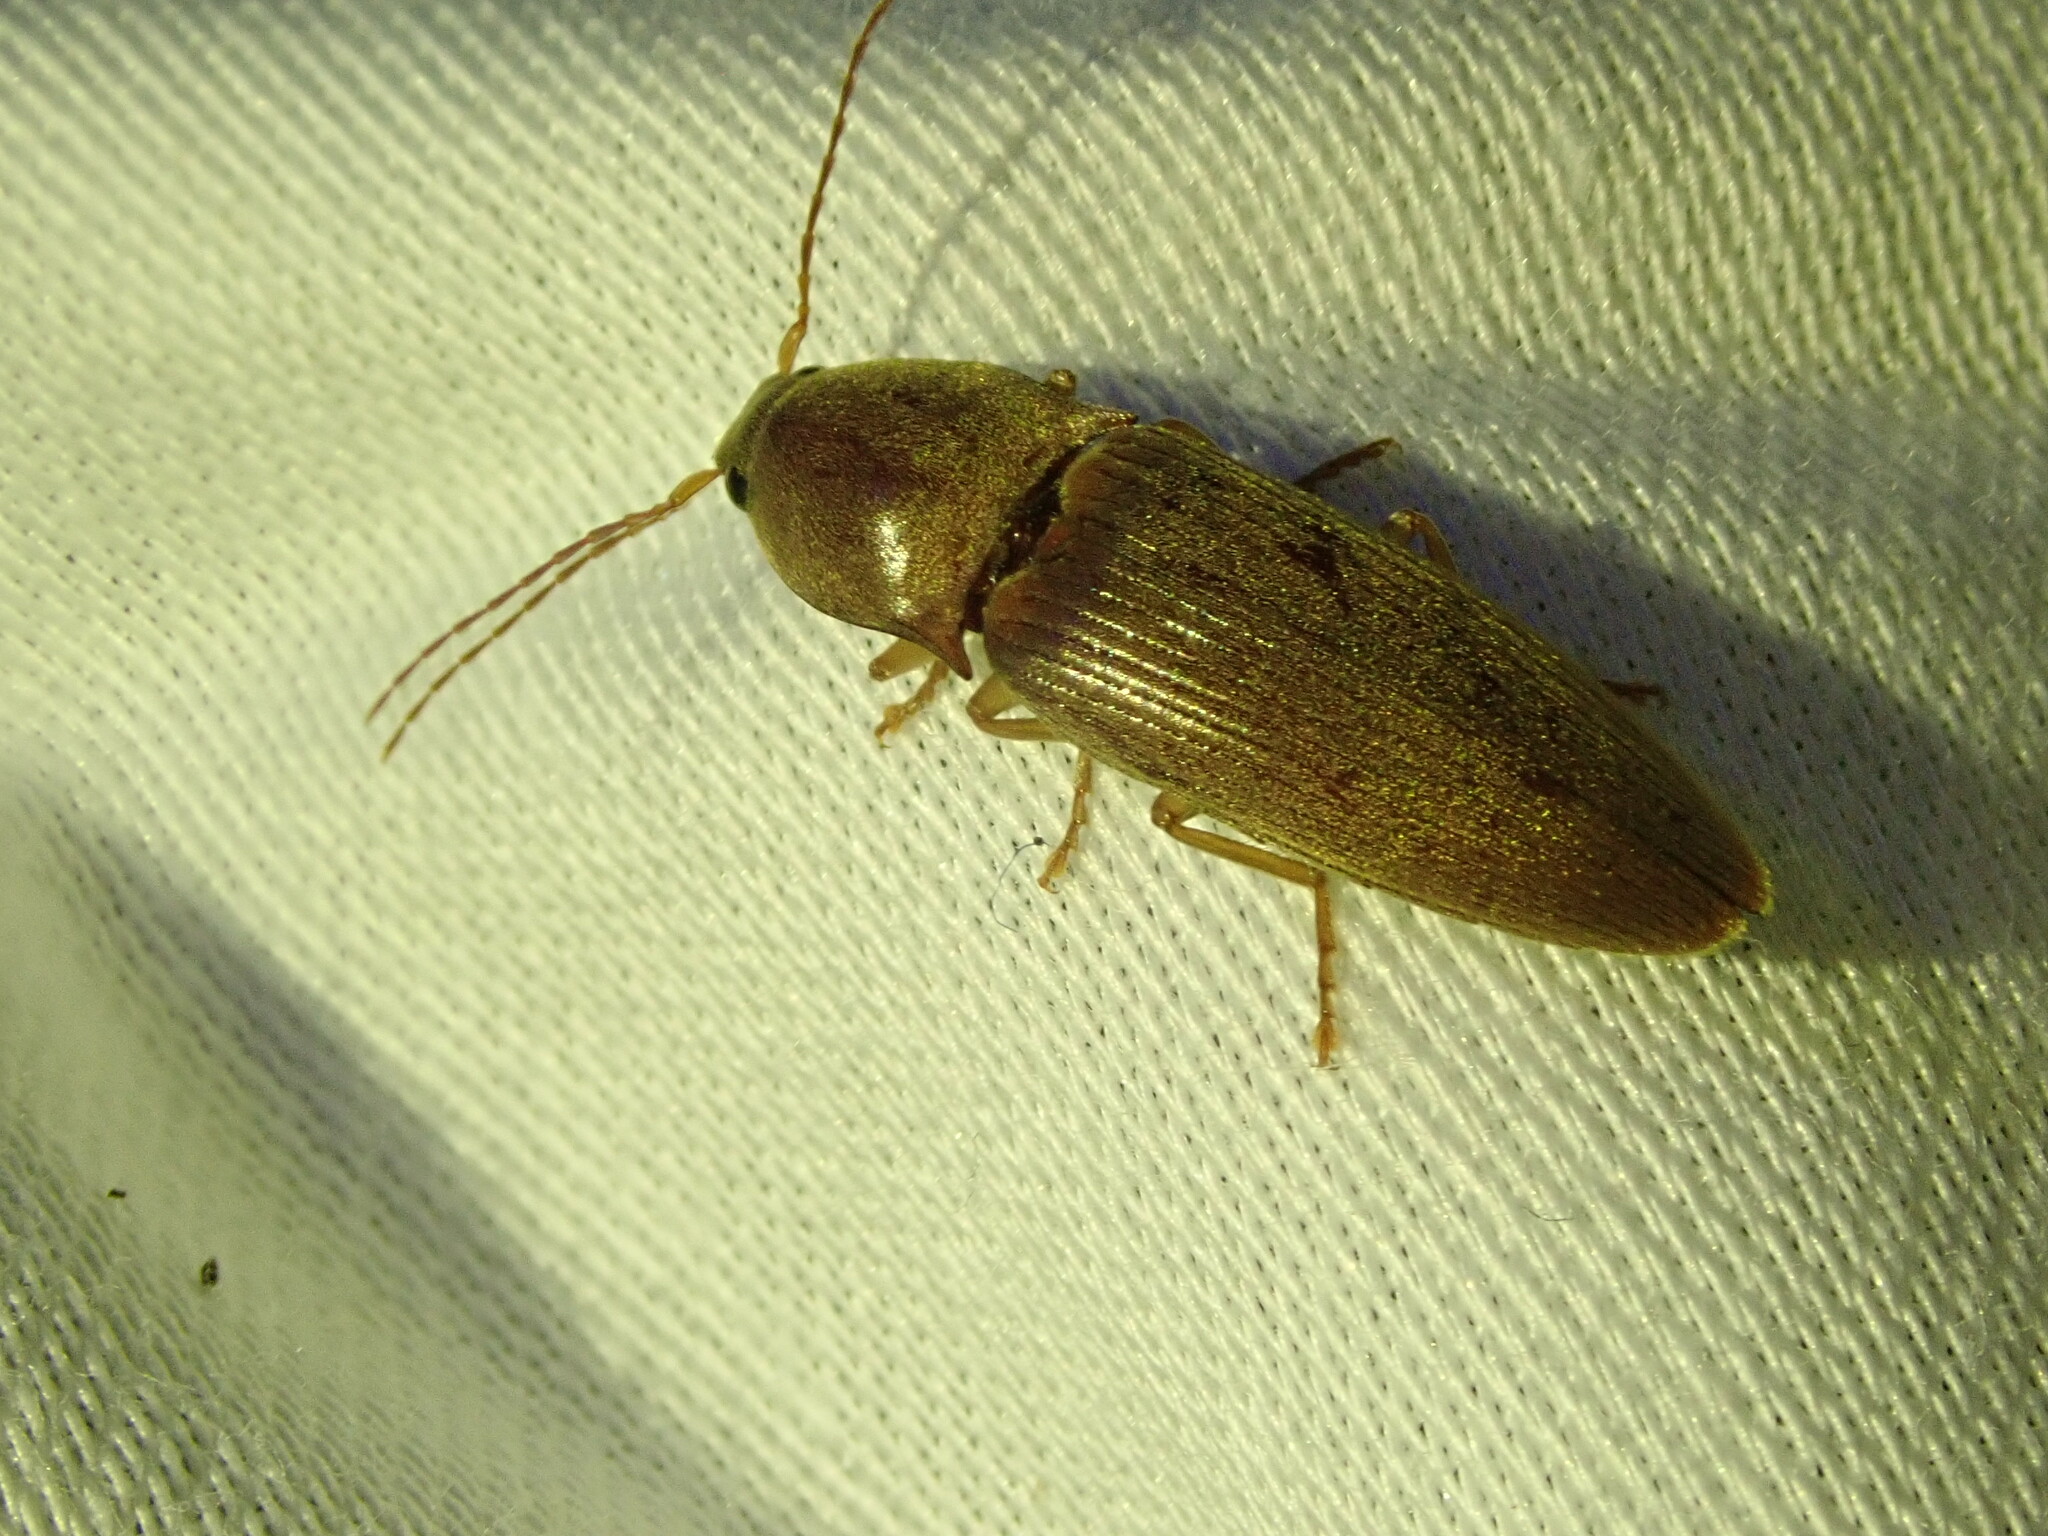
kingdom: Animalia
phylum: Arthropoda
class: Insecta
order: Coleoptera
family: Elateridae
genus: Monocrepidius
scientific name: Monocrepidius lividus
